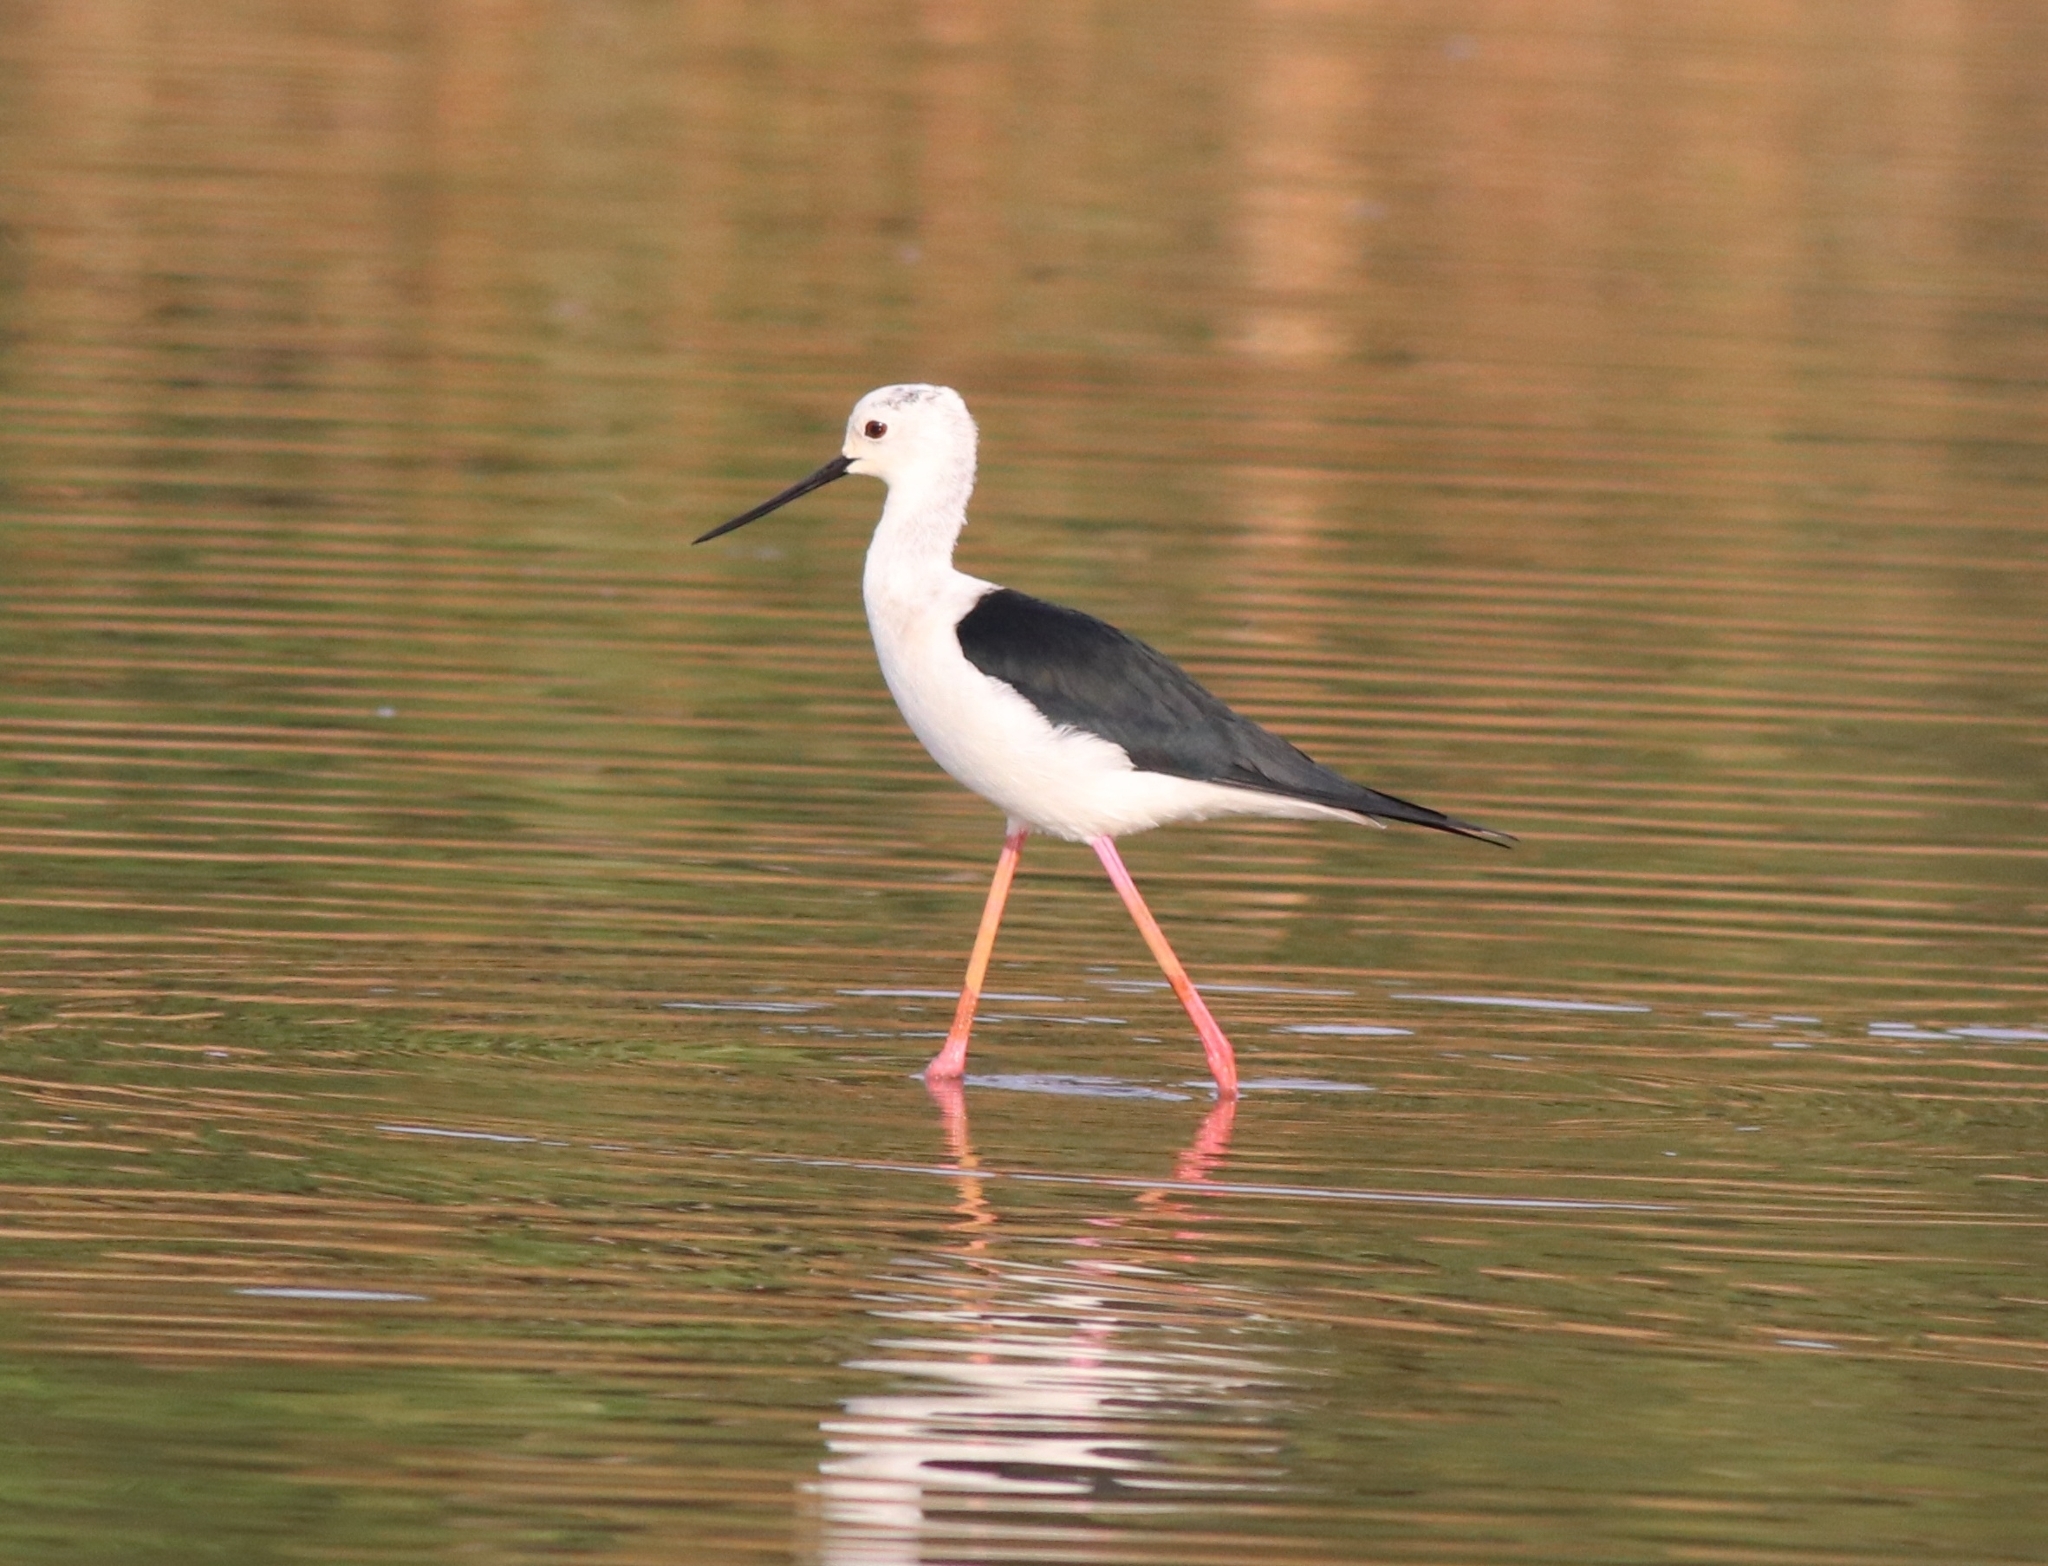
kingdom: Animalia
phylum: Chordata
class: Aves
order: Charadriiformes
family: Recurvirostridae
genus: Himantopus
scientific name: Himantopus himantopus
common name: Black-winged stilt
